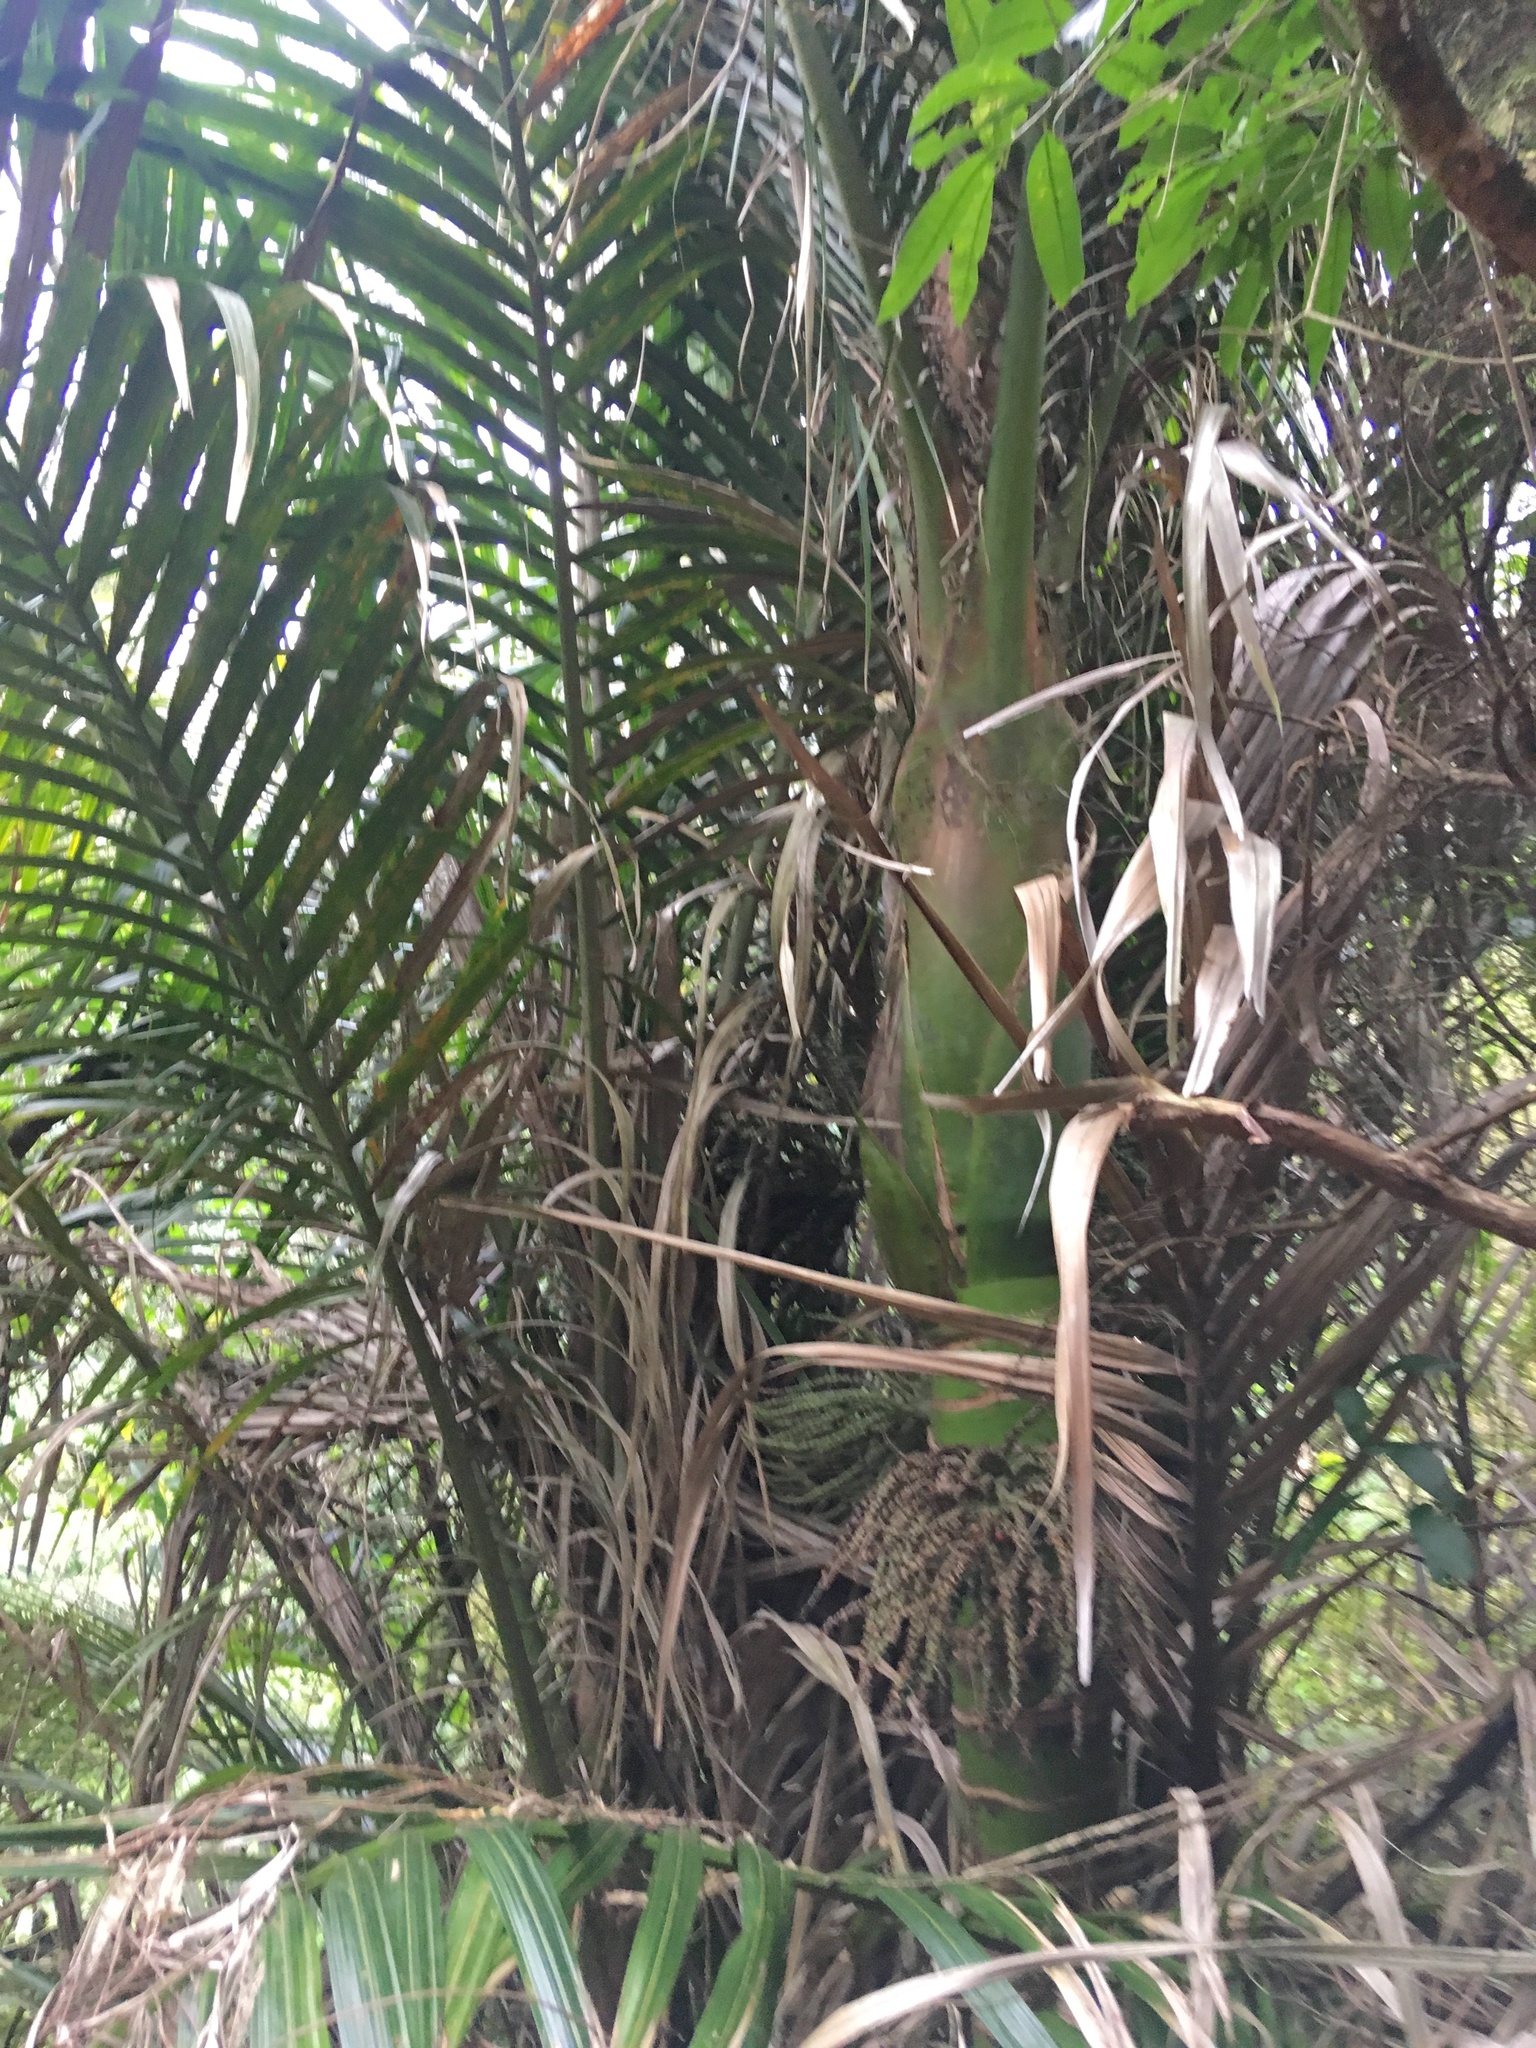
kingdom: Plantae
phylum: Tracheophyta
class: Liliopsida
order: Arecales
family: Arecaceae
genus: Rhopalostylis
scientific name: Rhopalostylis sapida
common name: Feather-duster palm
